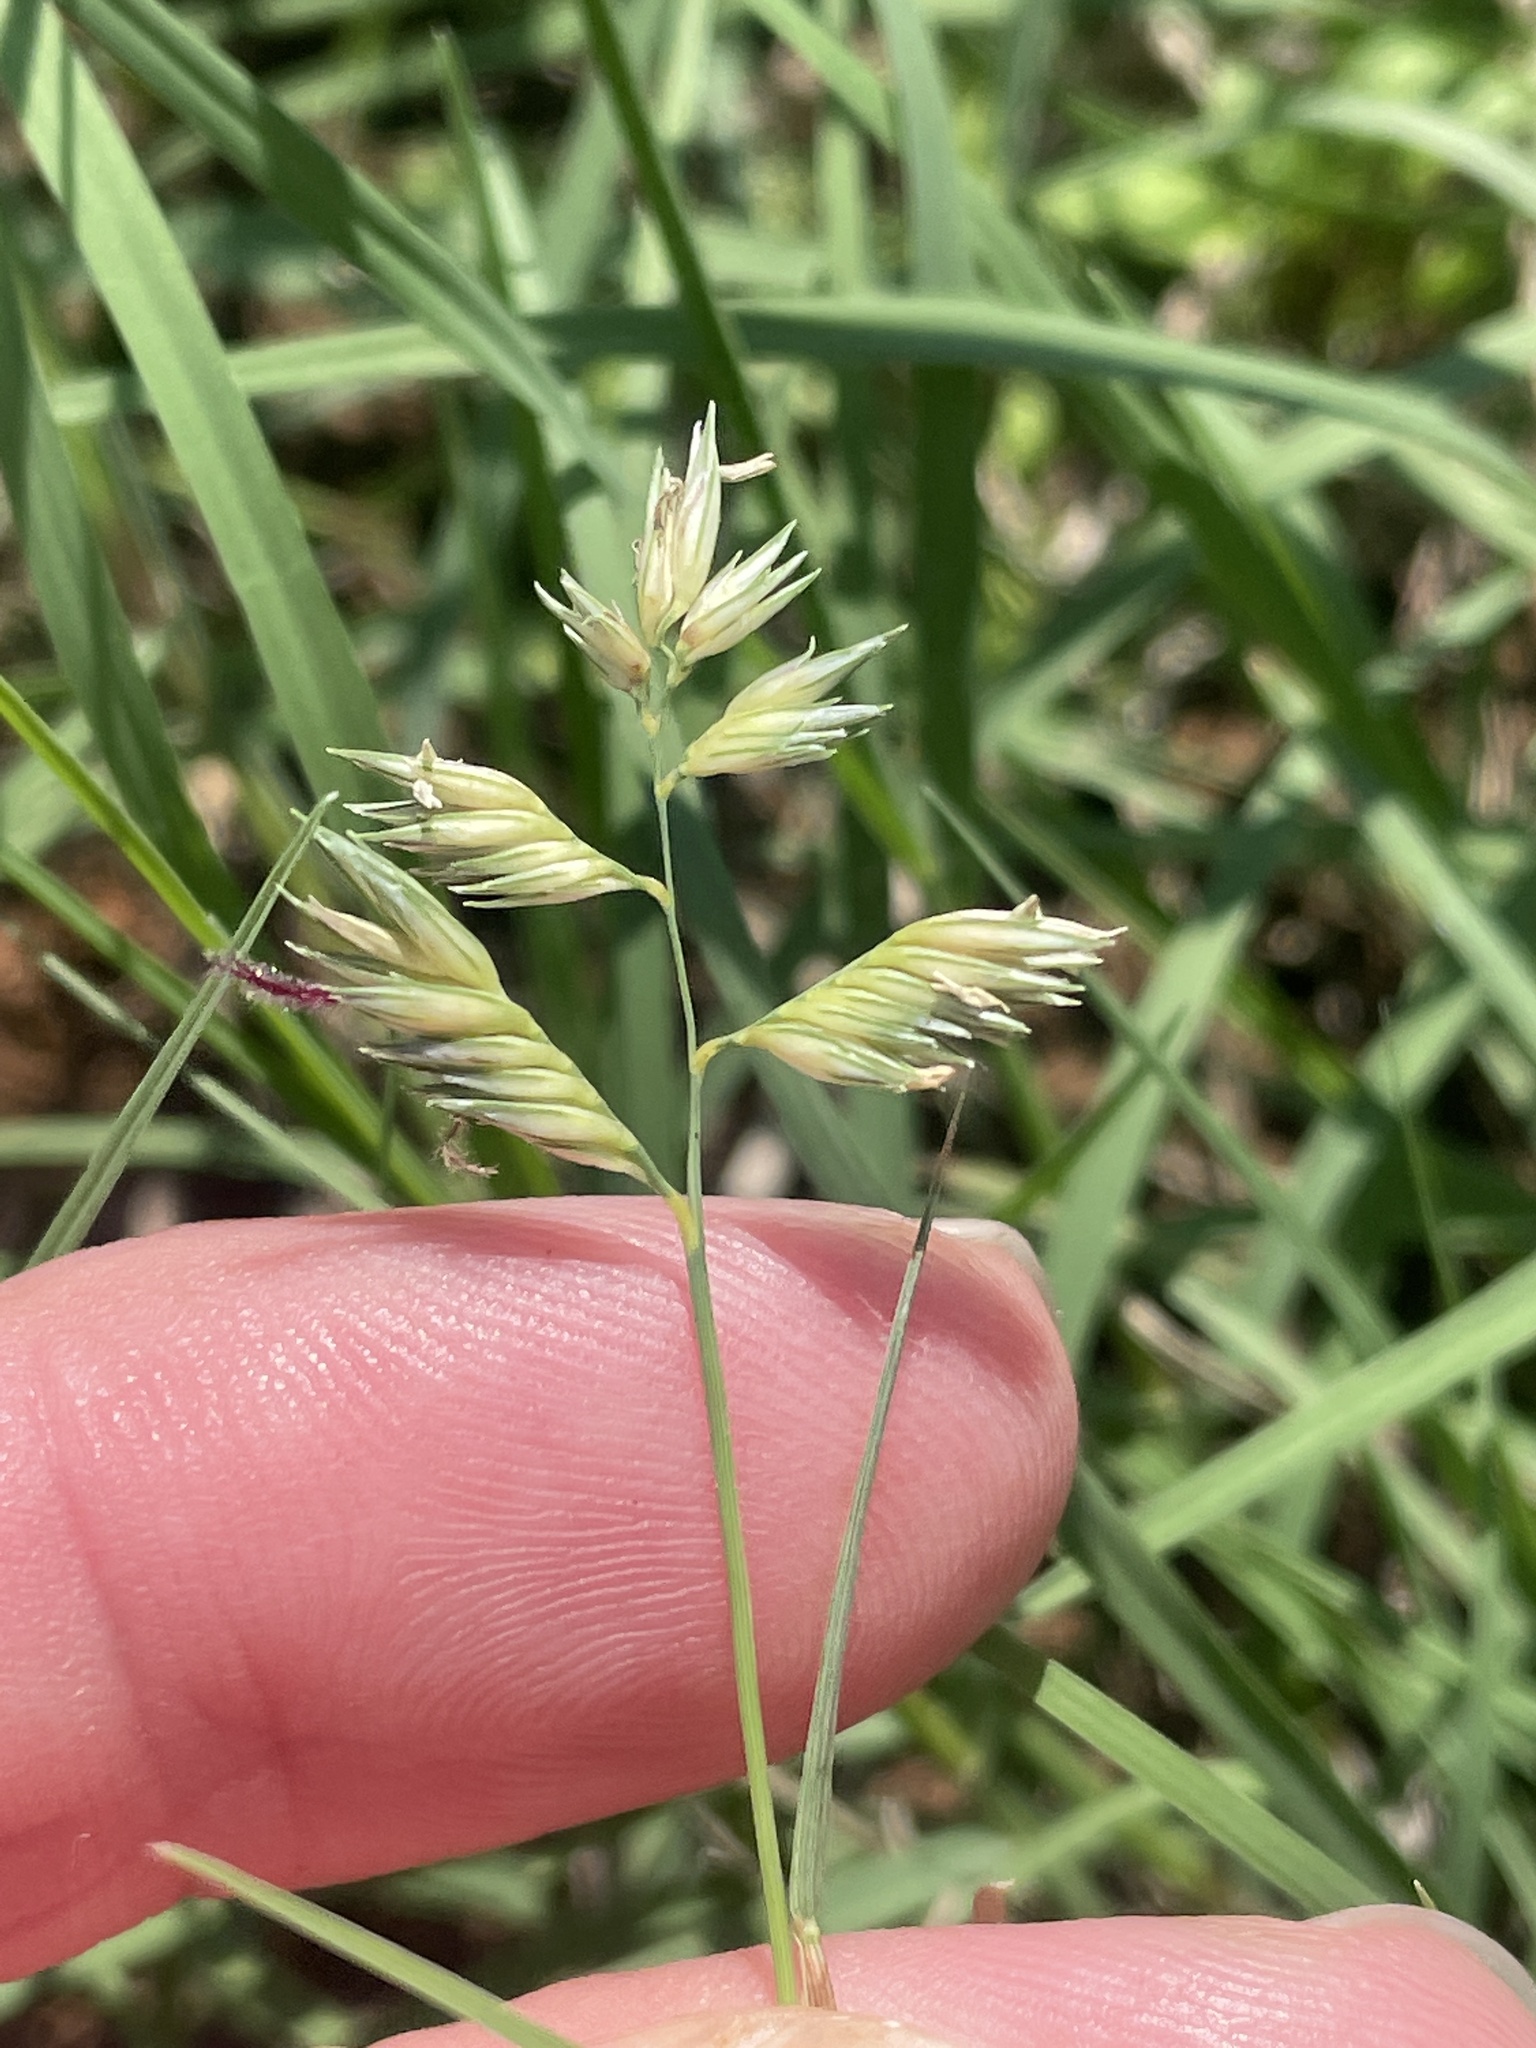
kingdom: Plantae
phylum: Tracheophyta
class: Liliopsida
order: Poales
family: Poaceae
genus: Bouteloua
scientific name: Bouteloua dactyloides
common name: Buffalo grass
